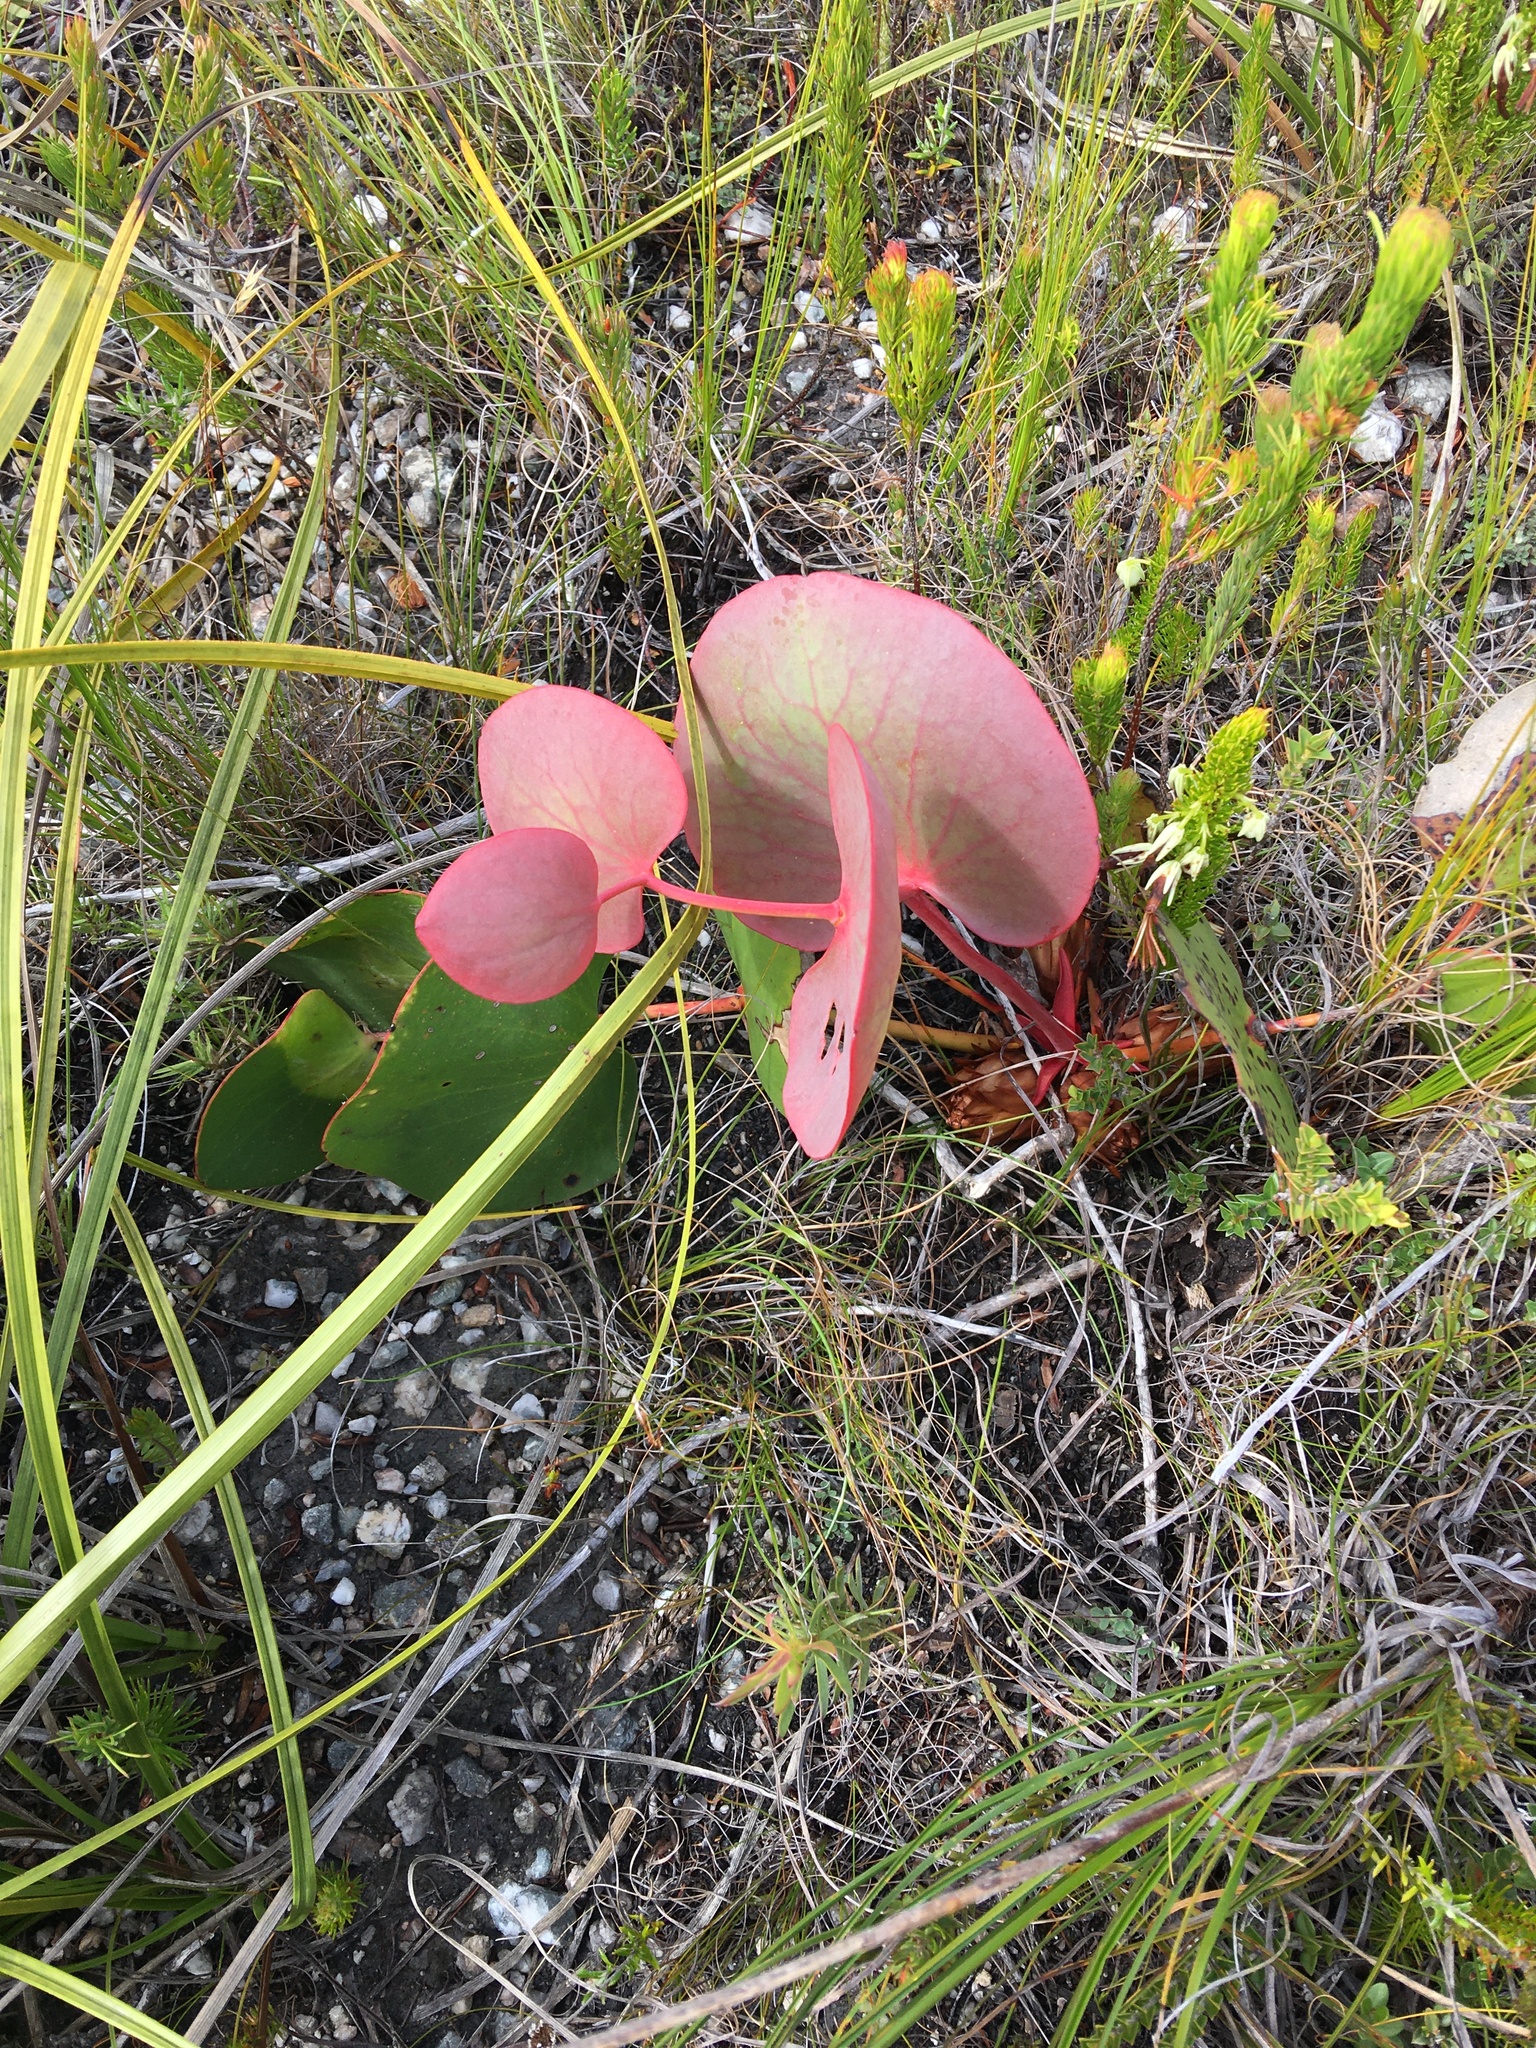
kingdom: Plantae
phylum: Tracheophyta
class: Magnoliopsida
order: Proteales
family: Proteaceae
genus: Protea
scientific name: Protea cordata
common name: Heart-leaf sugarbush
